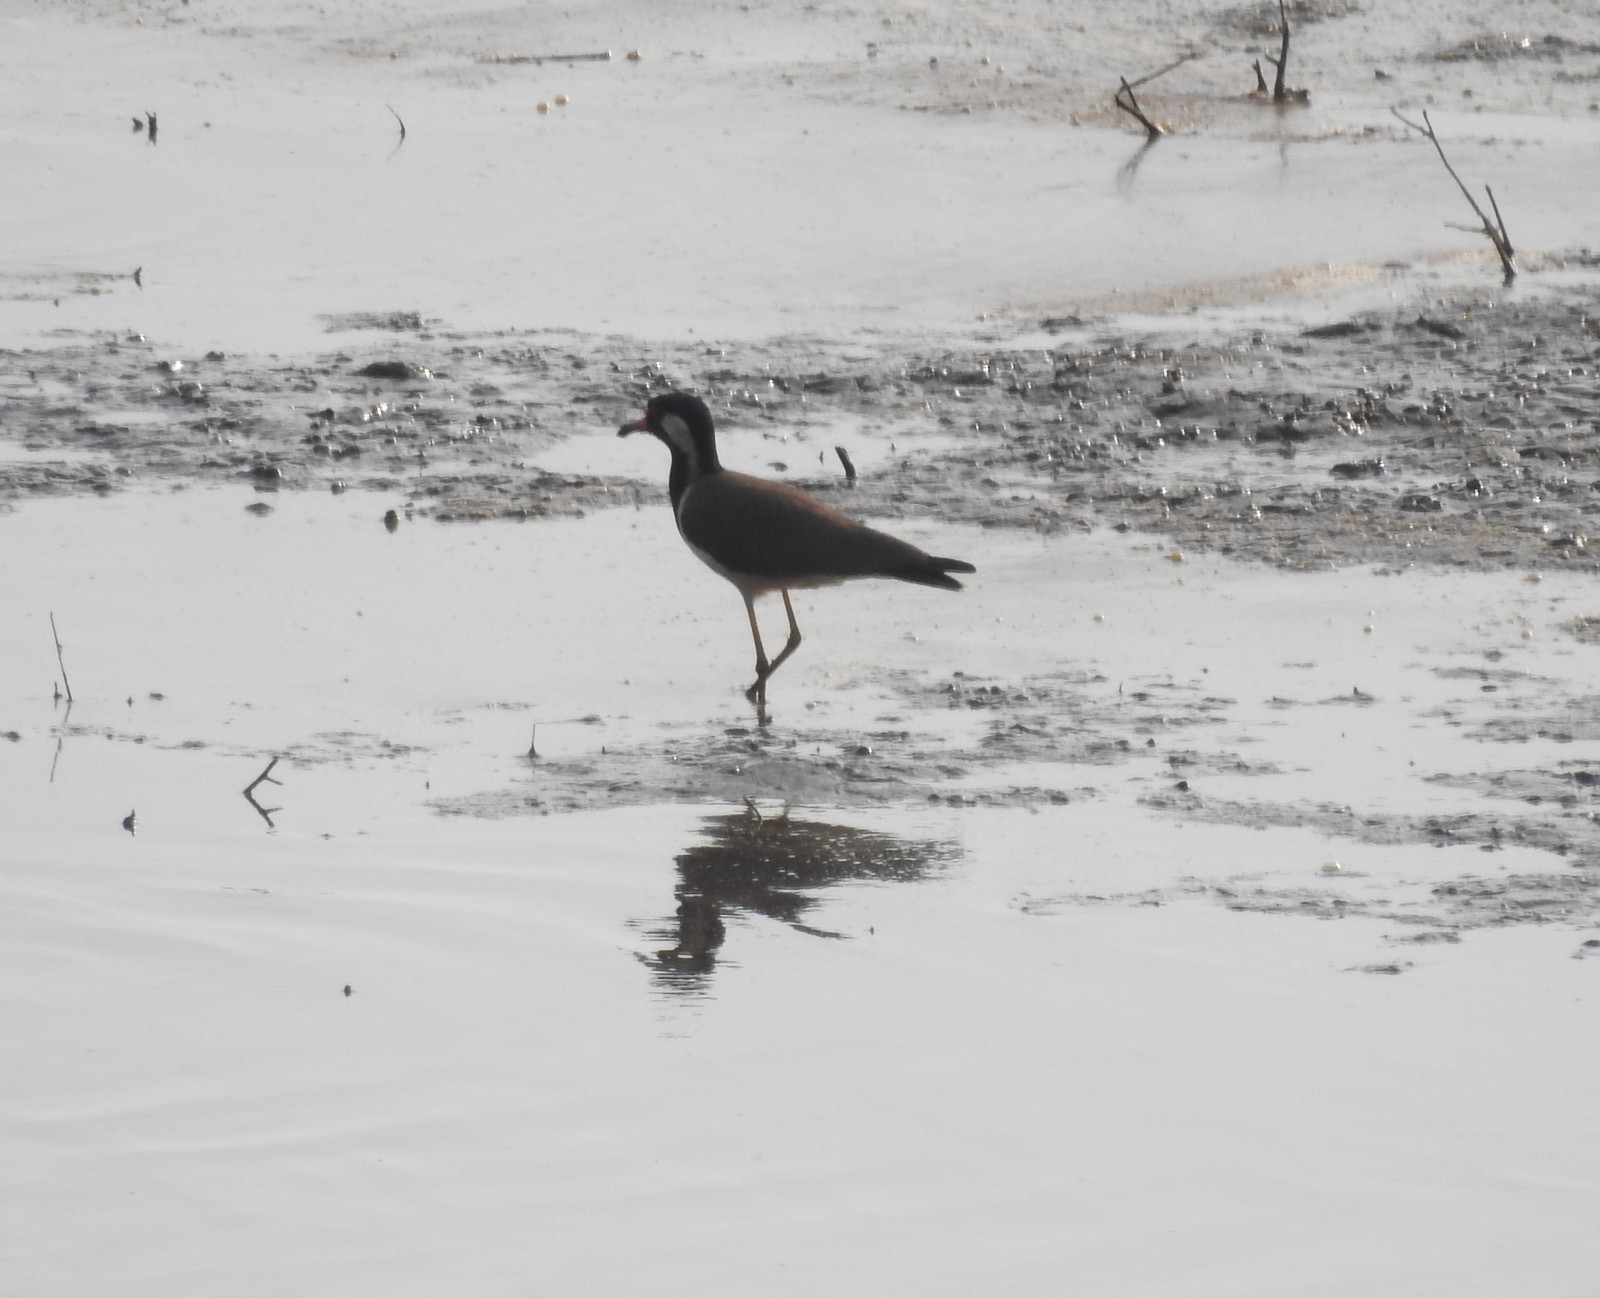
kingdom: Animalia
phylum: Chordata
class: Aves
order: Charadriiformes
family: Charadriidae
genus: Vanellus
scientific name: Vanellus indicus
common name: Red-wattled lapwing
